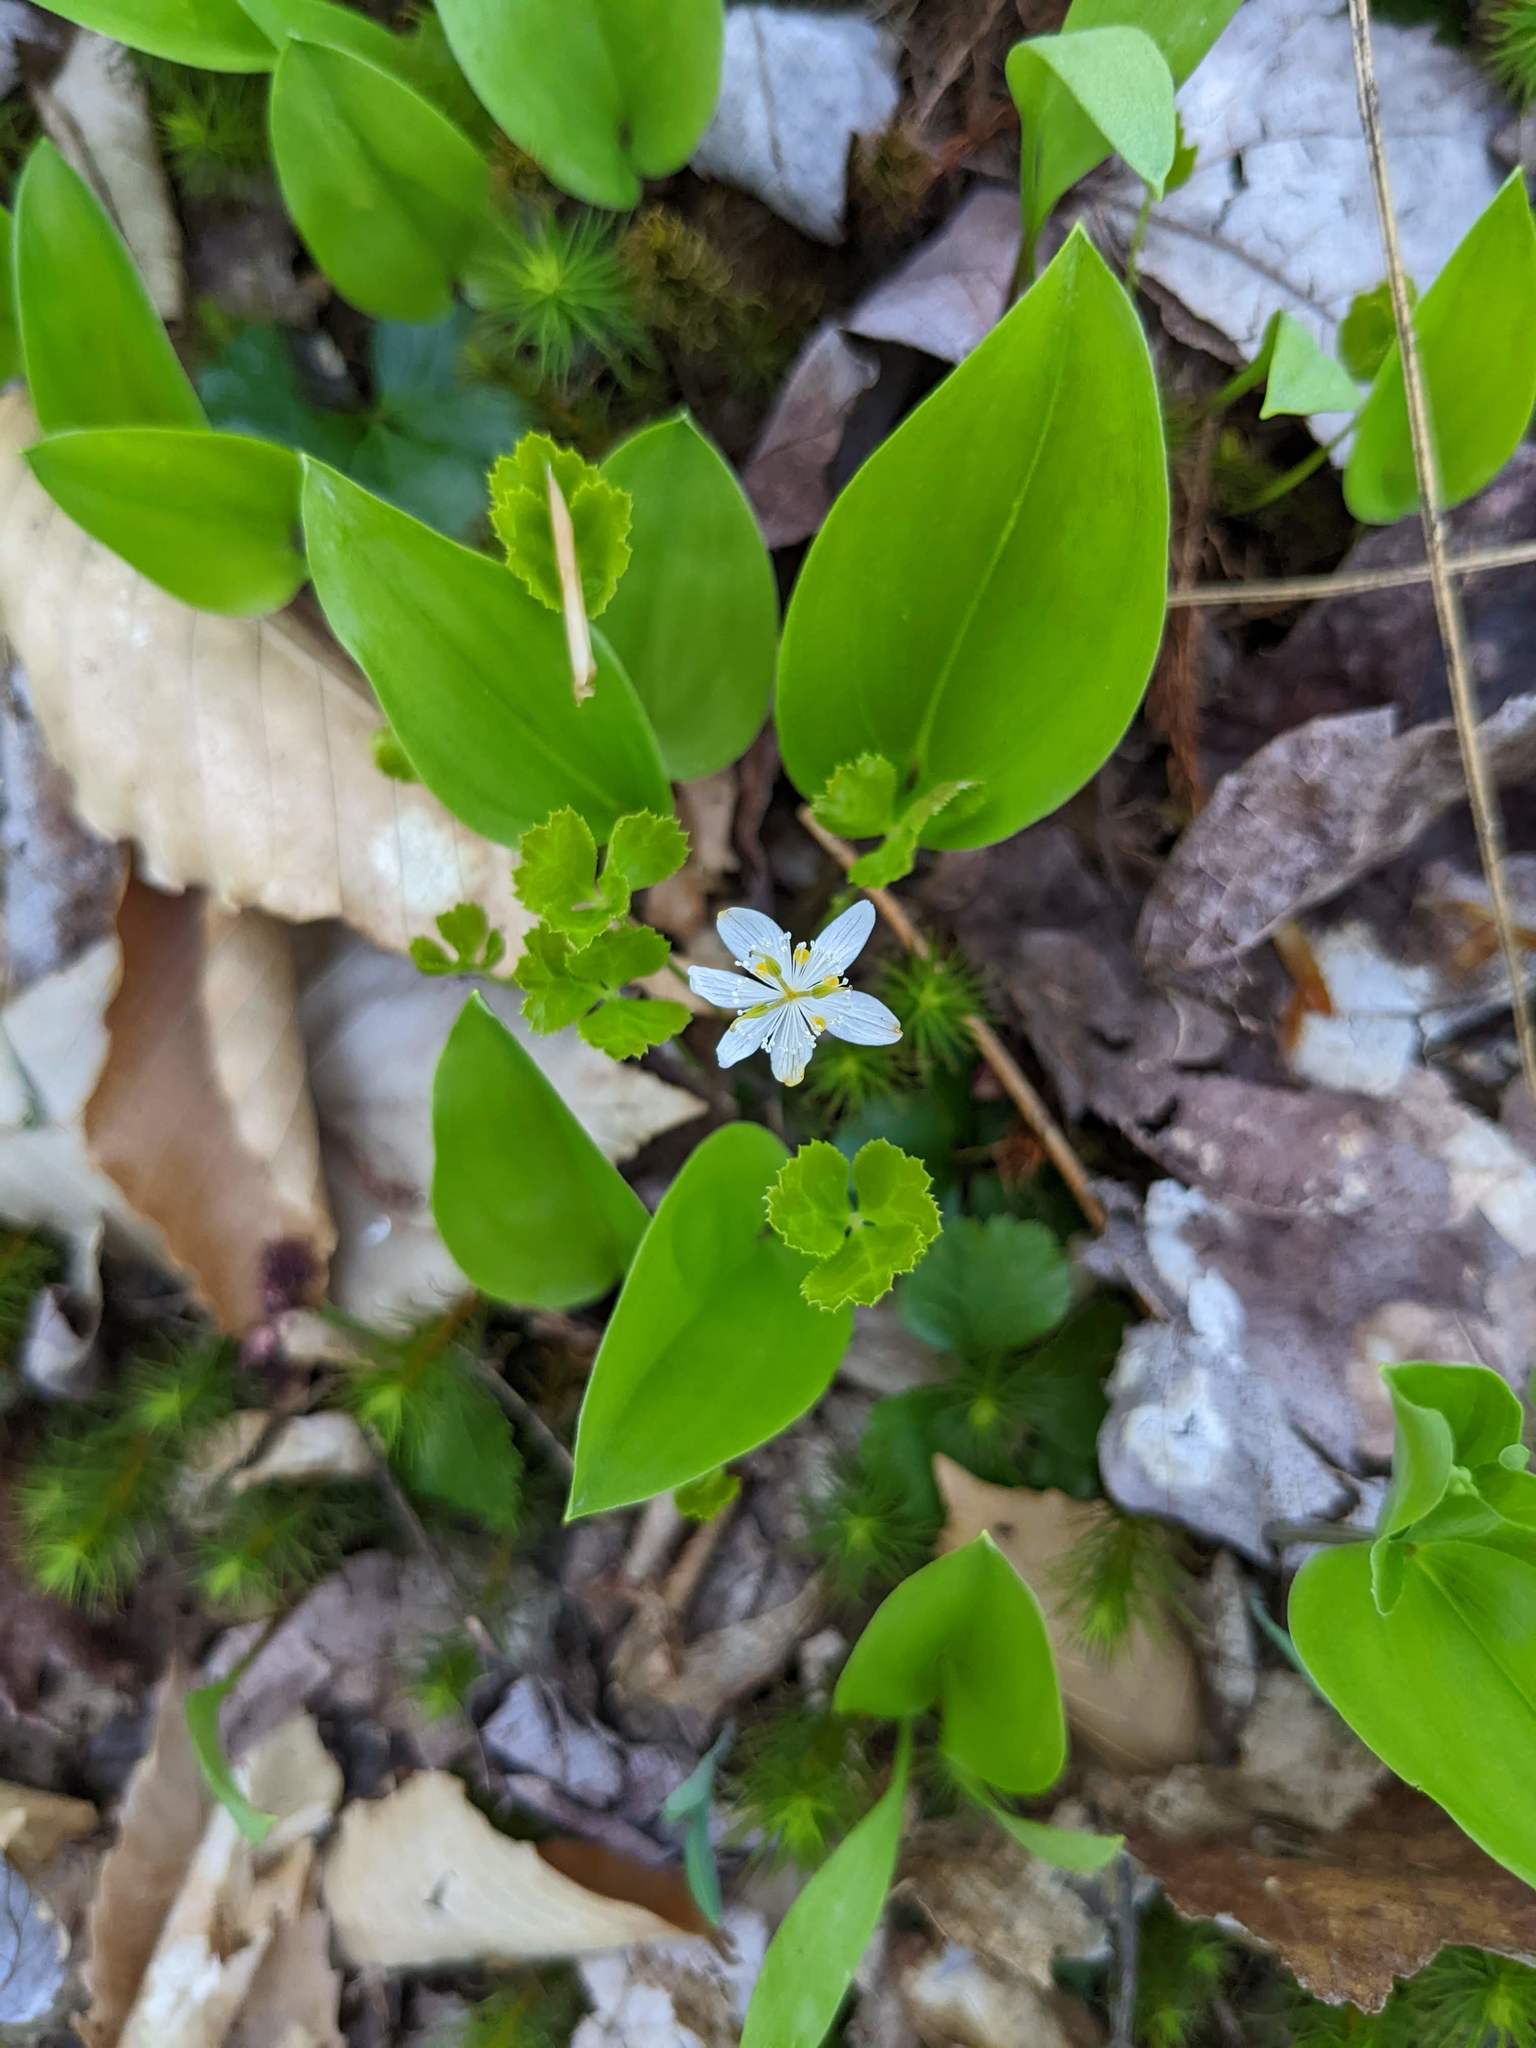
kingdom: Plantae
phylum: Tracheophyta
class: Magnoliopsida
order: Ranunculales
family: Ranunculaceae
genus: Coptis
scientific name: Coptis trifolia
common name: Canker-root
